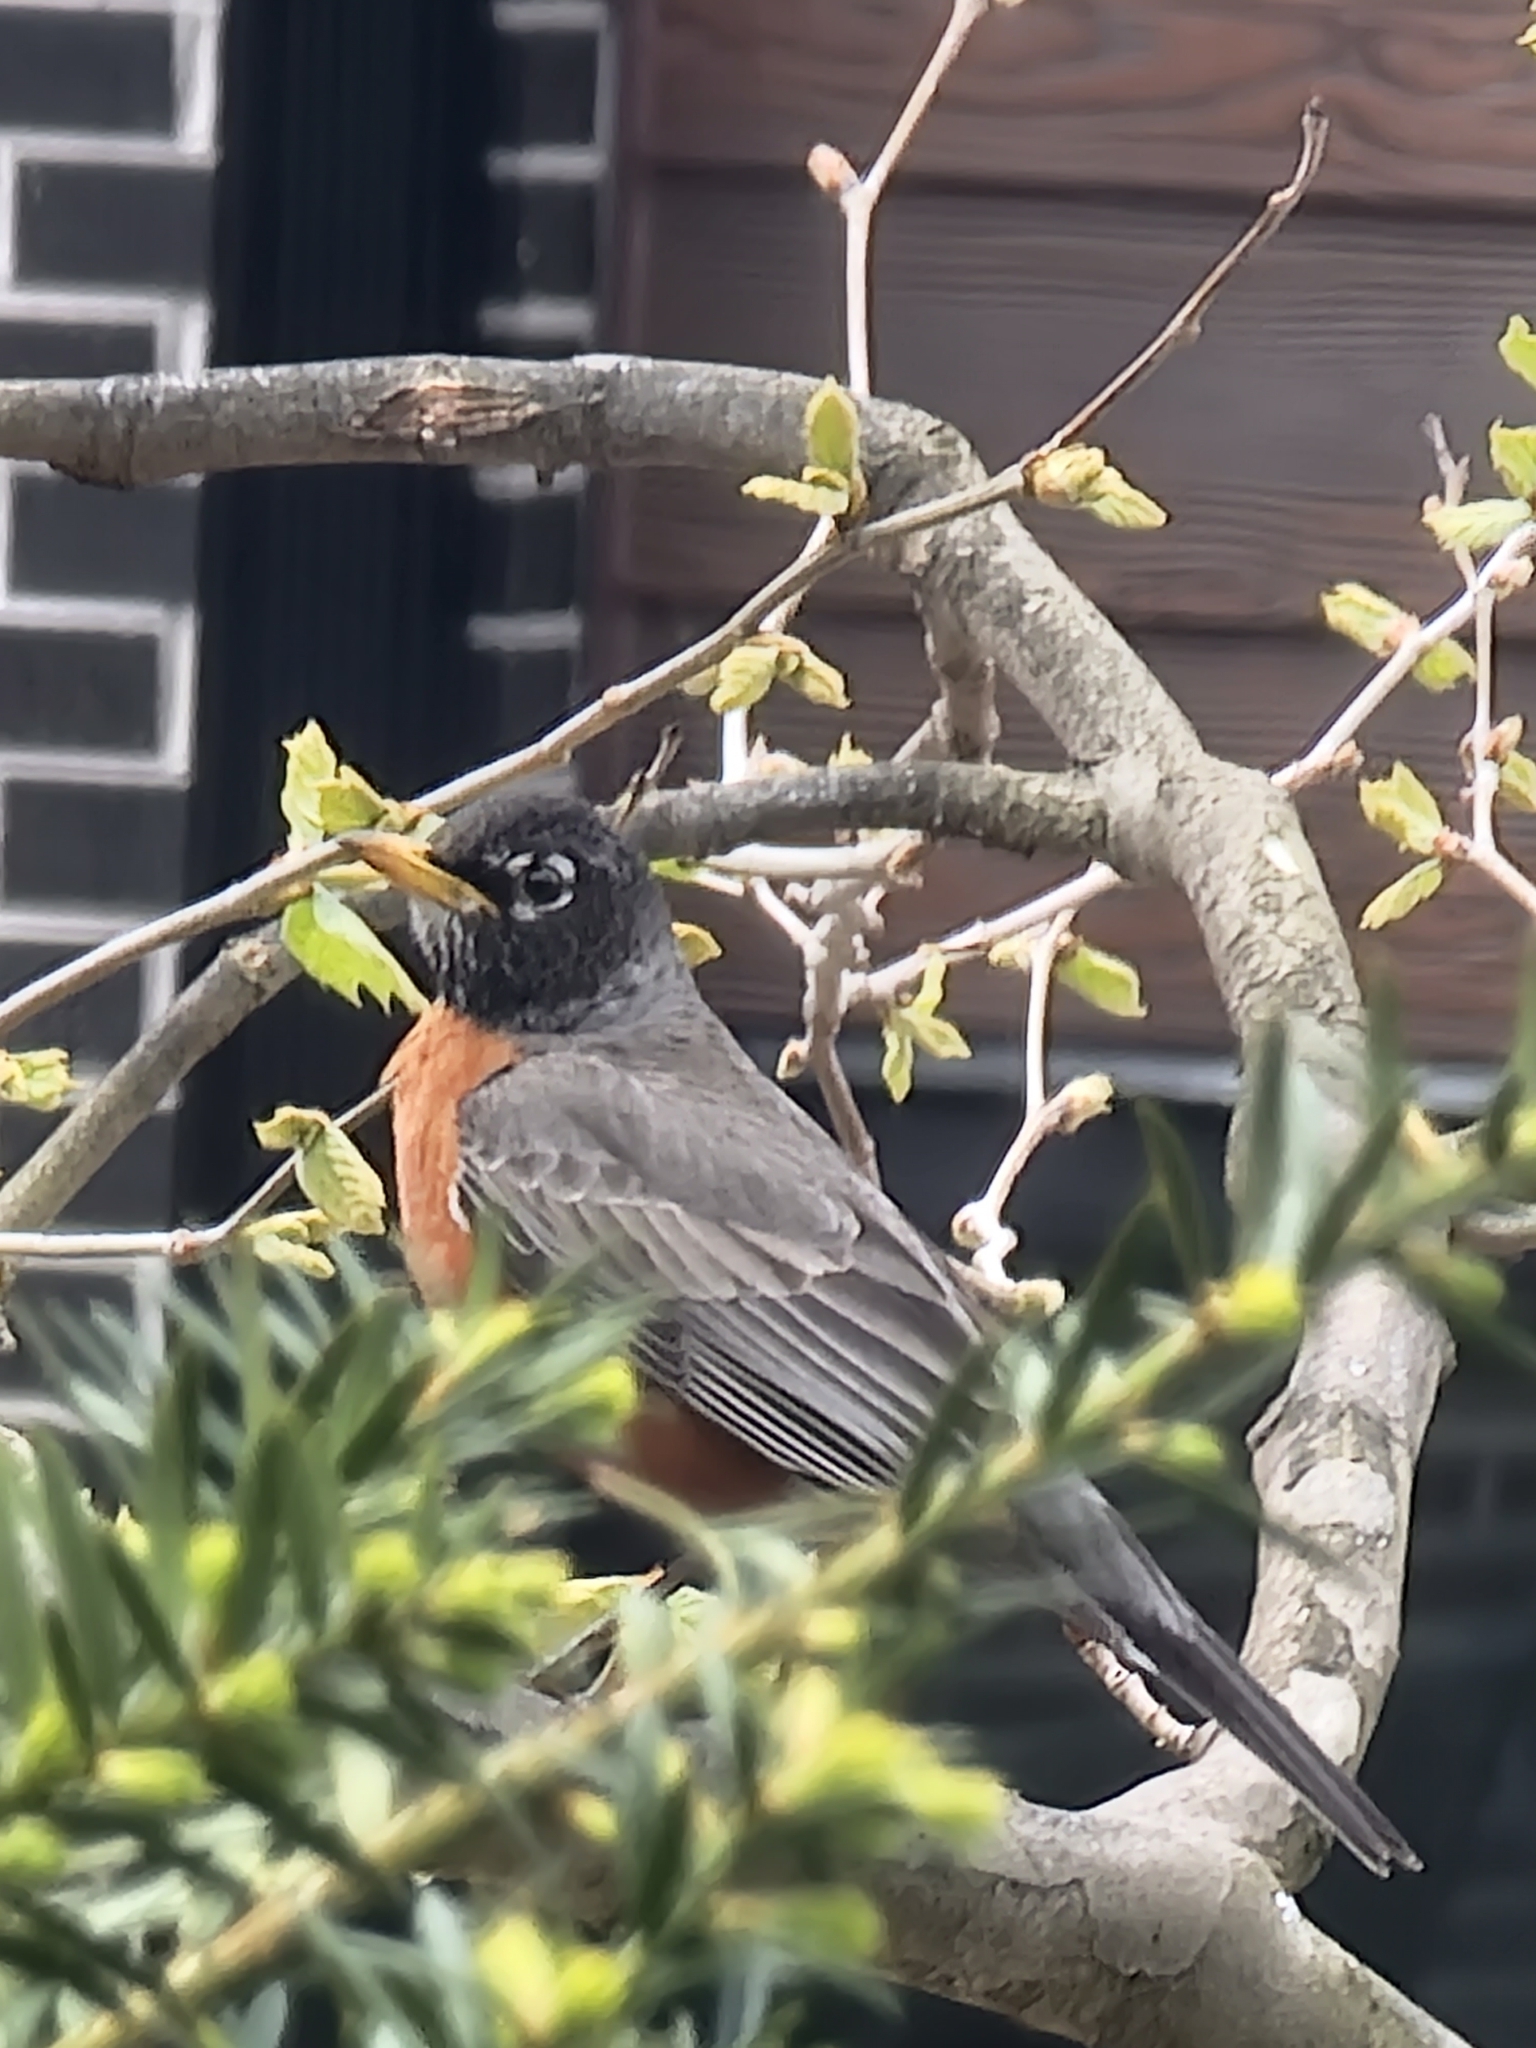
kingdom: Animalia
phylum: Chordata
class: Aves
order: Passeriformes
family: Turdidae
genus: Turdus
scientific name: Turdus migratorius
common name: American robin
